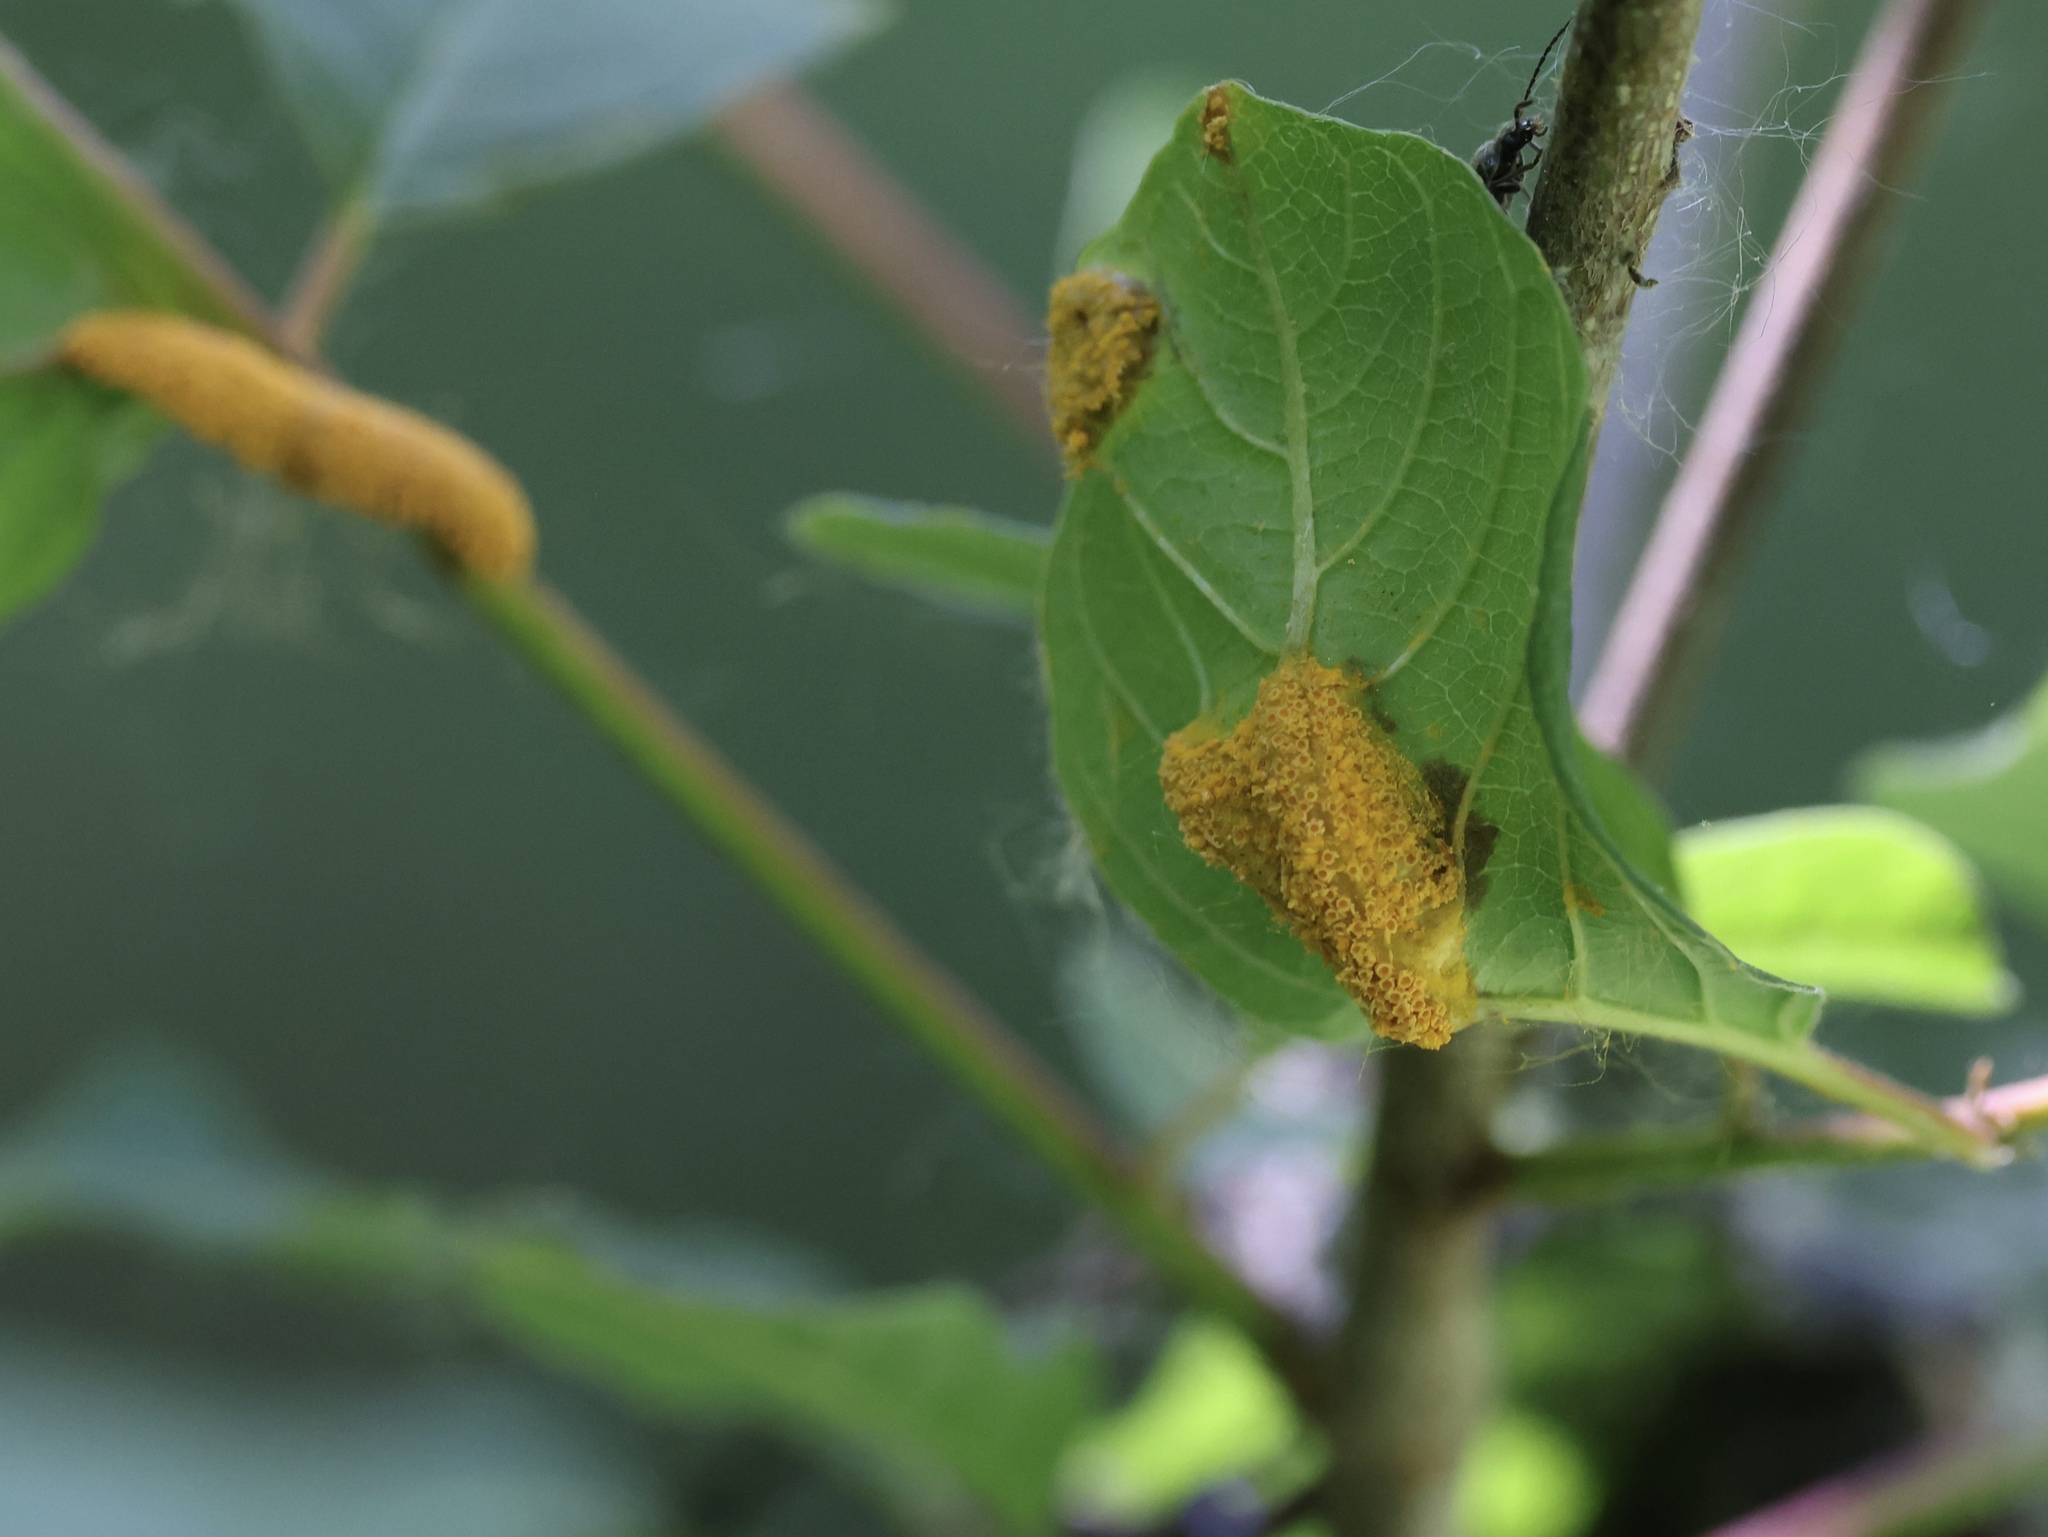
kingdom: Fungi
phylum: Basidiomycota
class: Pucciniomycetes
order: Pucciniales
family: Pucciniaceae
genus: Puccinia
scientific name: Puccinia coronata
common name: Crown rust
